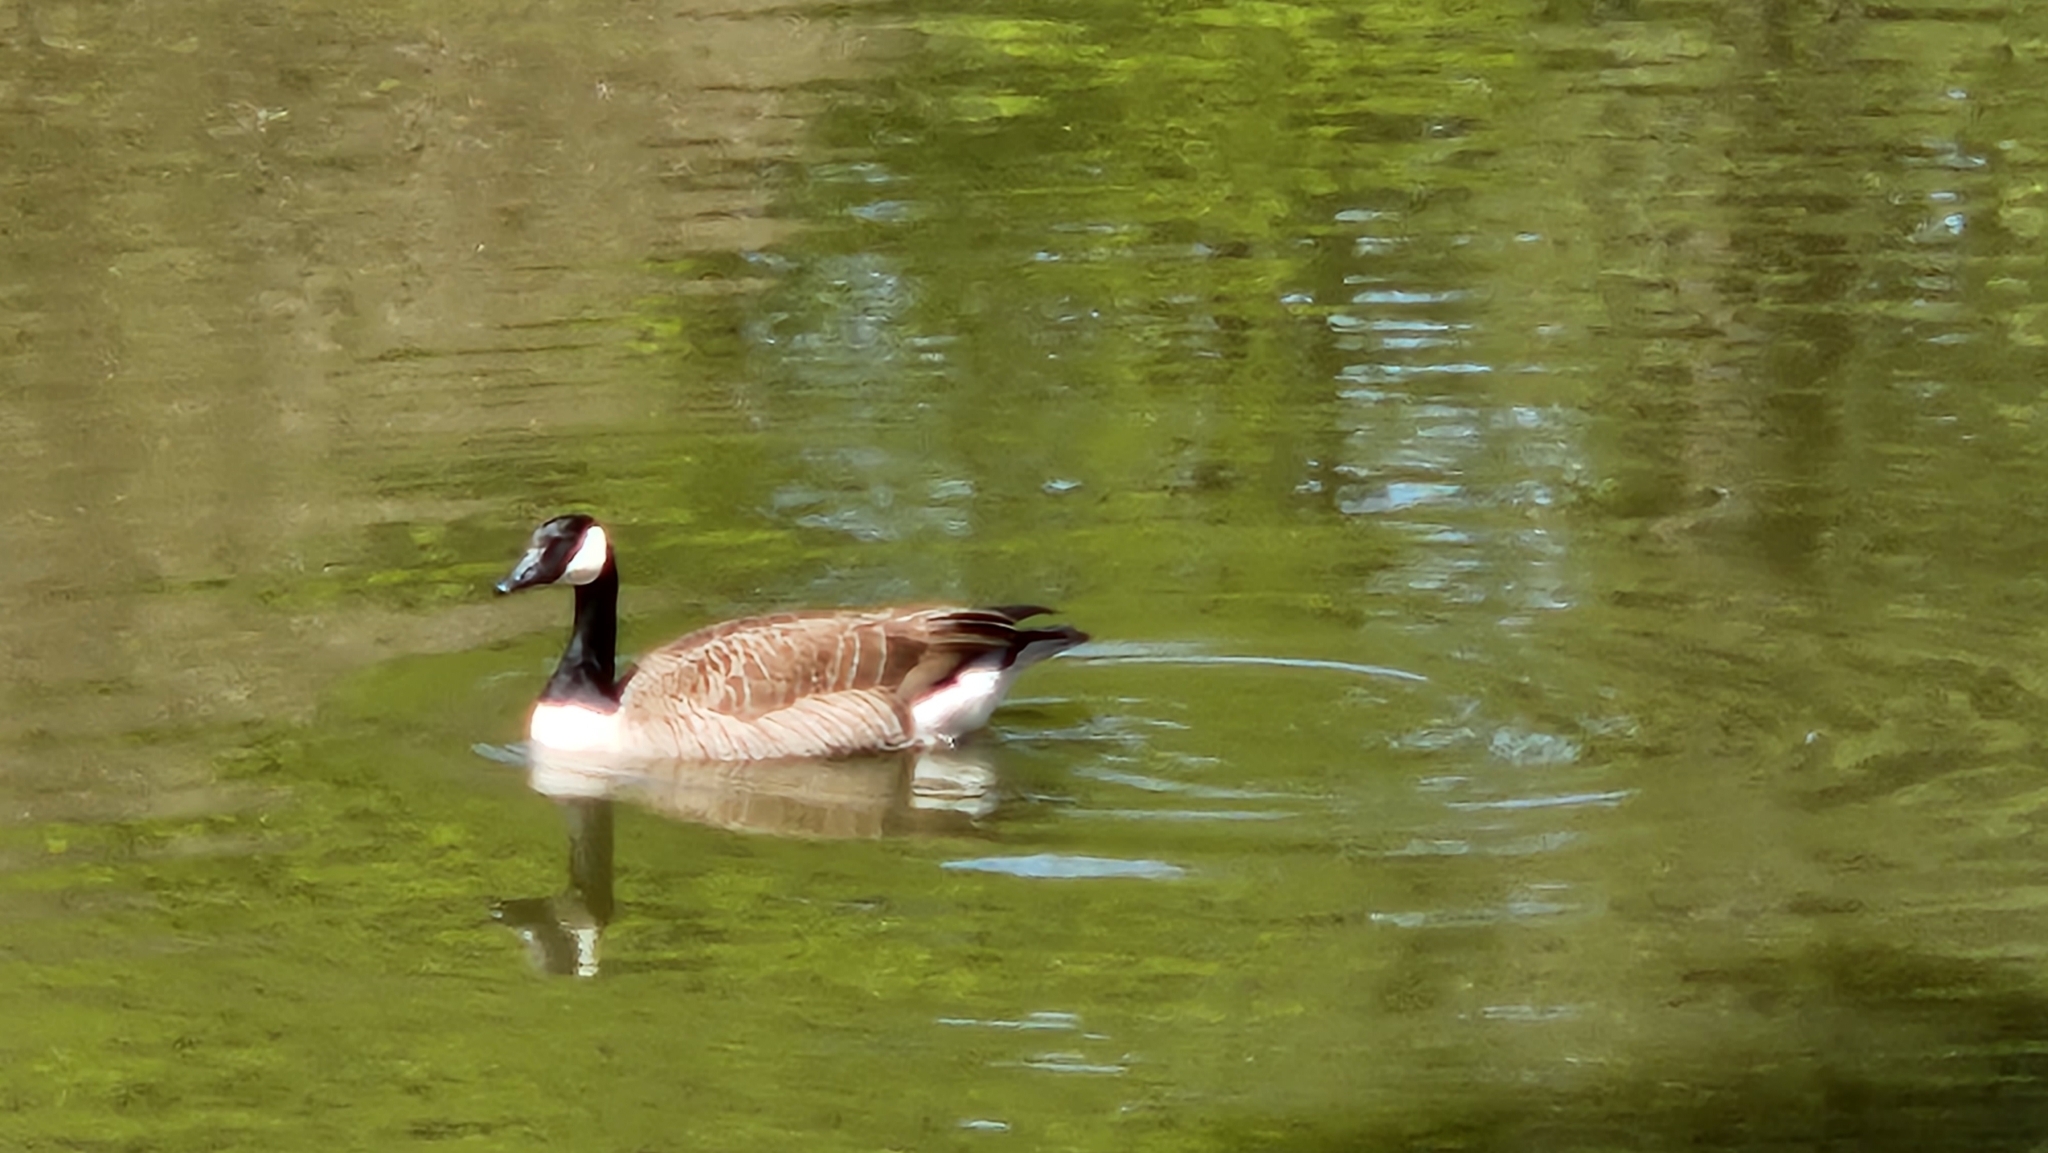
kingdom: Animalia
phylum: Chordata
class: Aves
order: Anseriformes
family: Anatidae
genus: Branta
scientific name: Branta canadensis
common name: Canada goose
